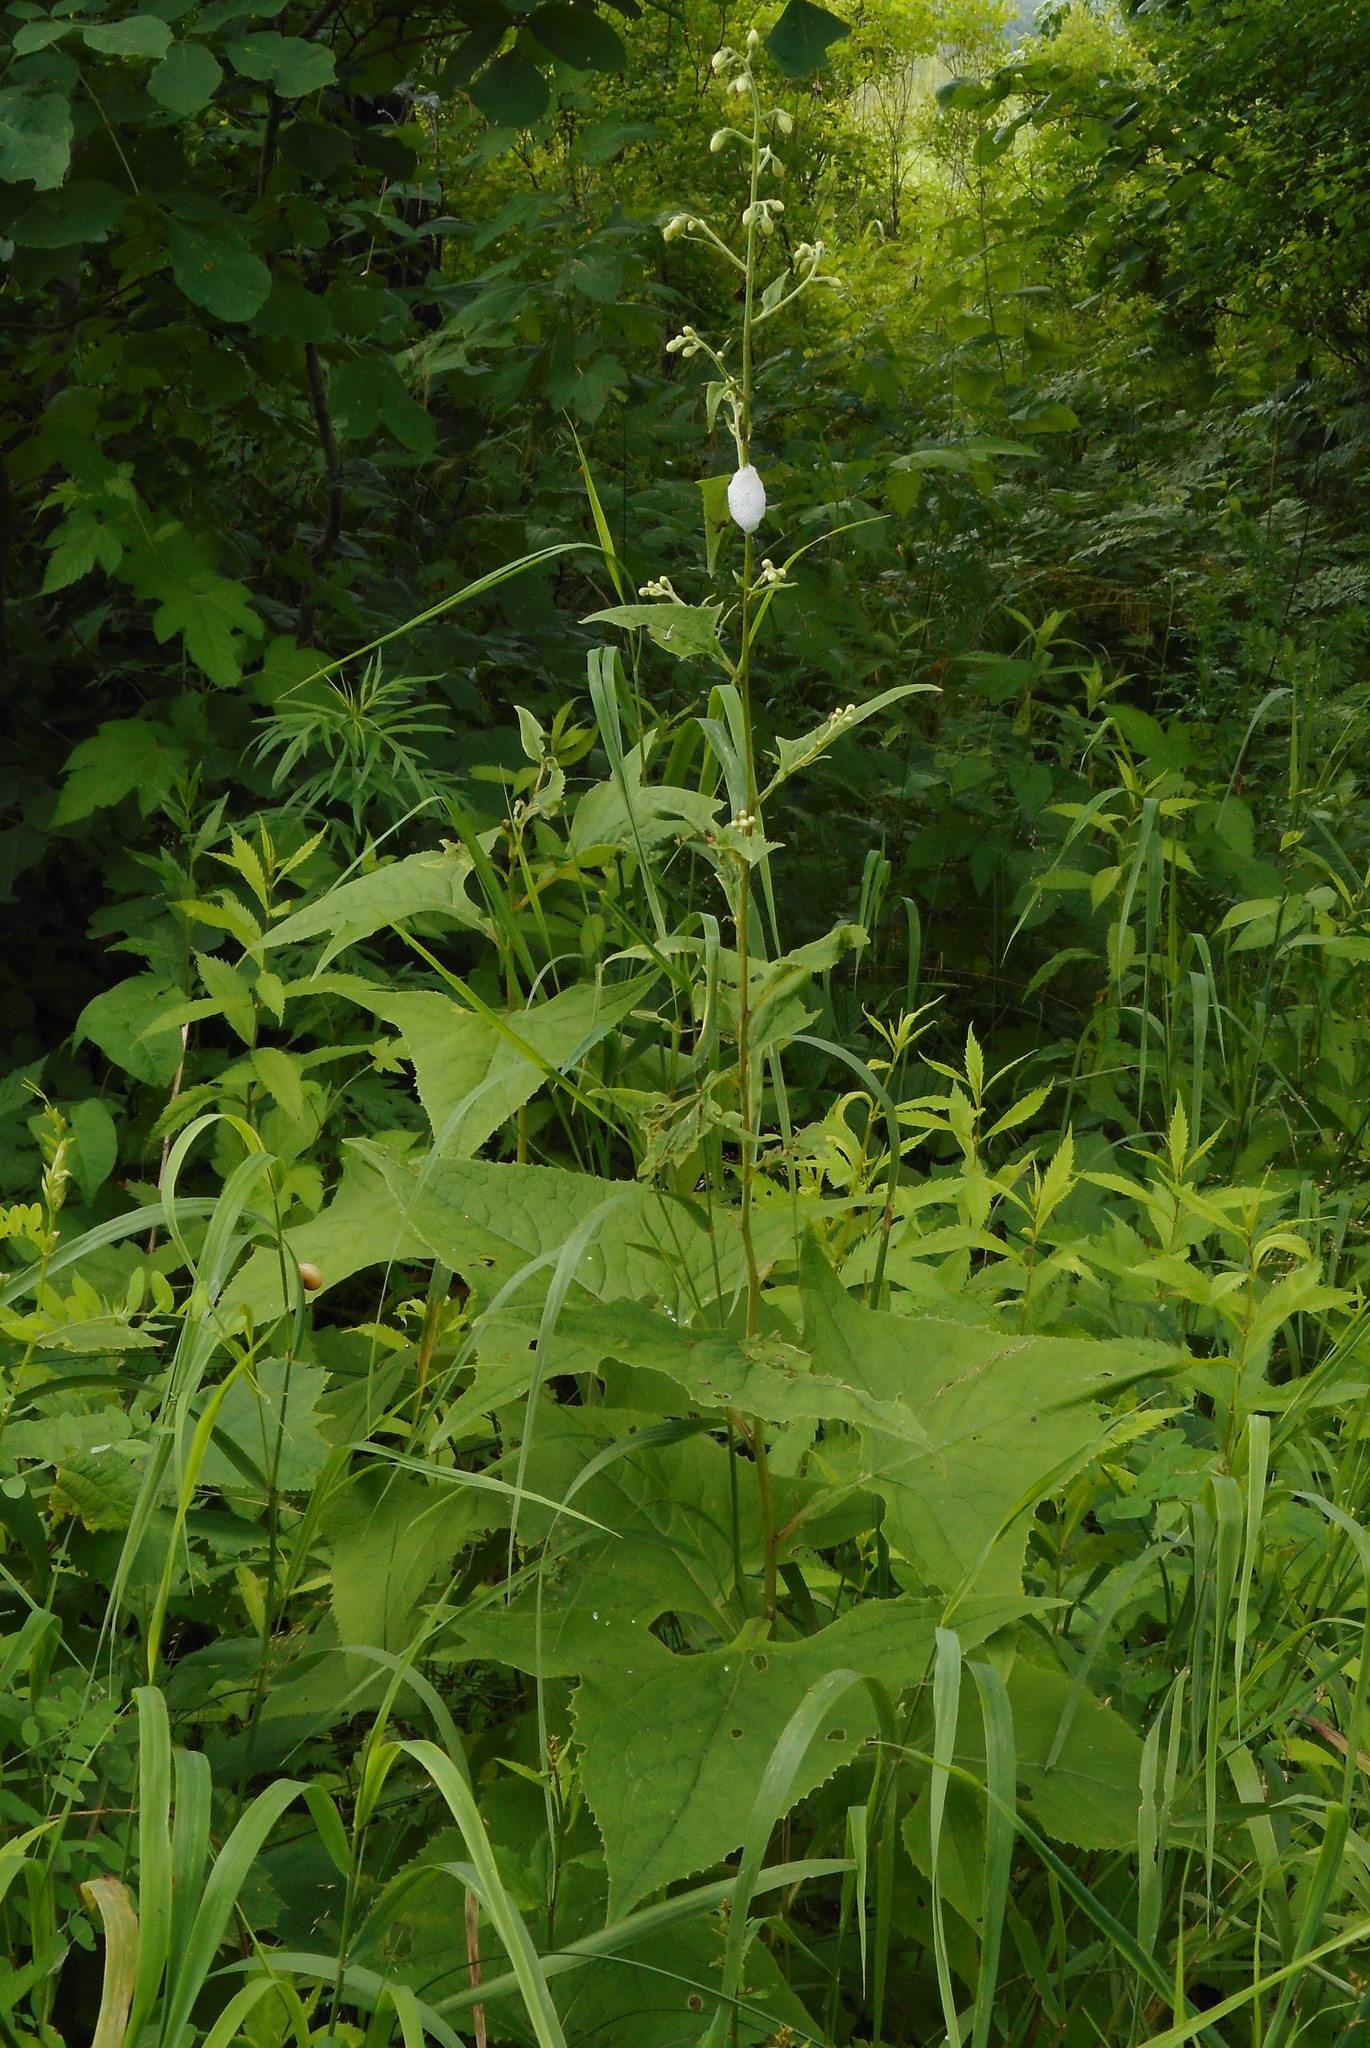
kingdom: Plantae
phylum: Tracheophyta
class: Magnoliopsida
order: Asterales
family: Asteraceae
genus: Parasenecio
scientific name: Parasenecio hastatus
